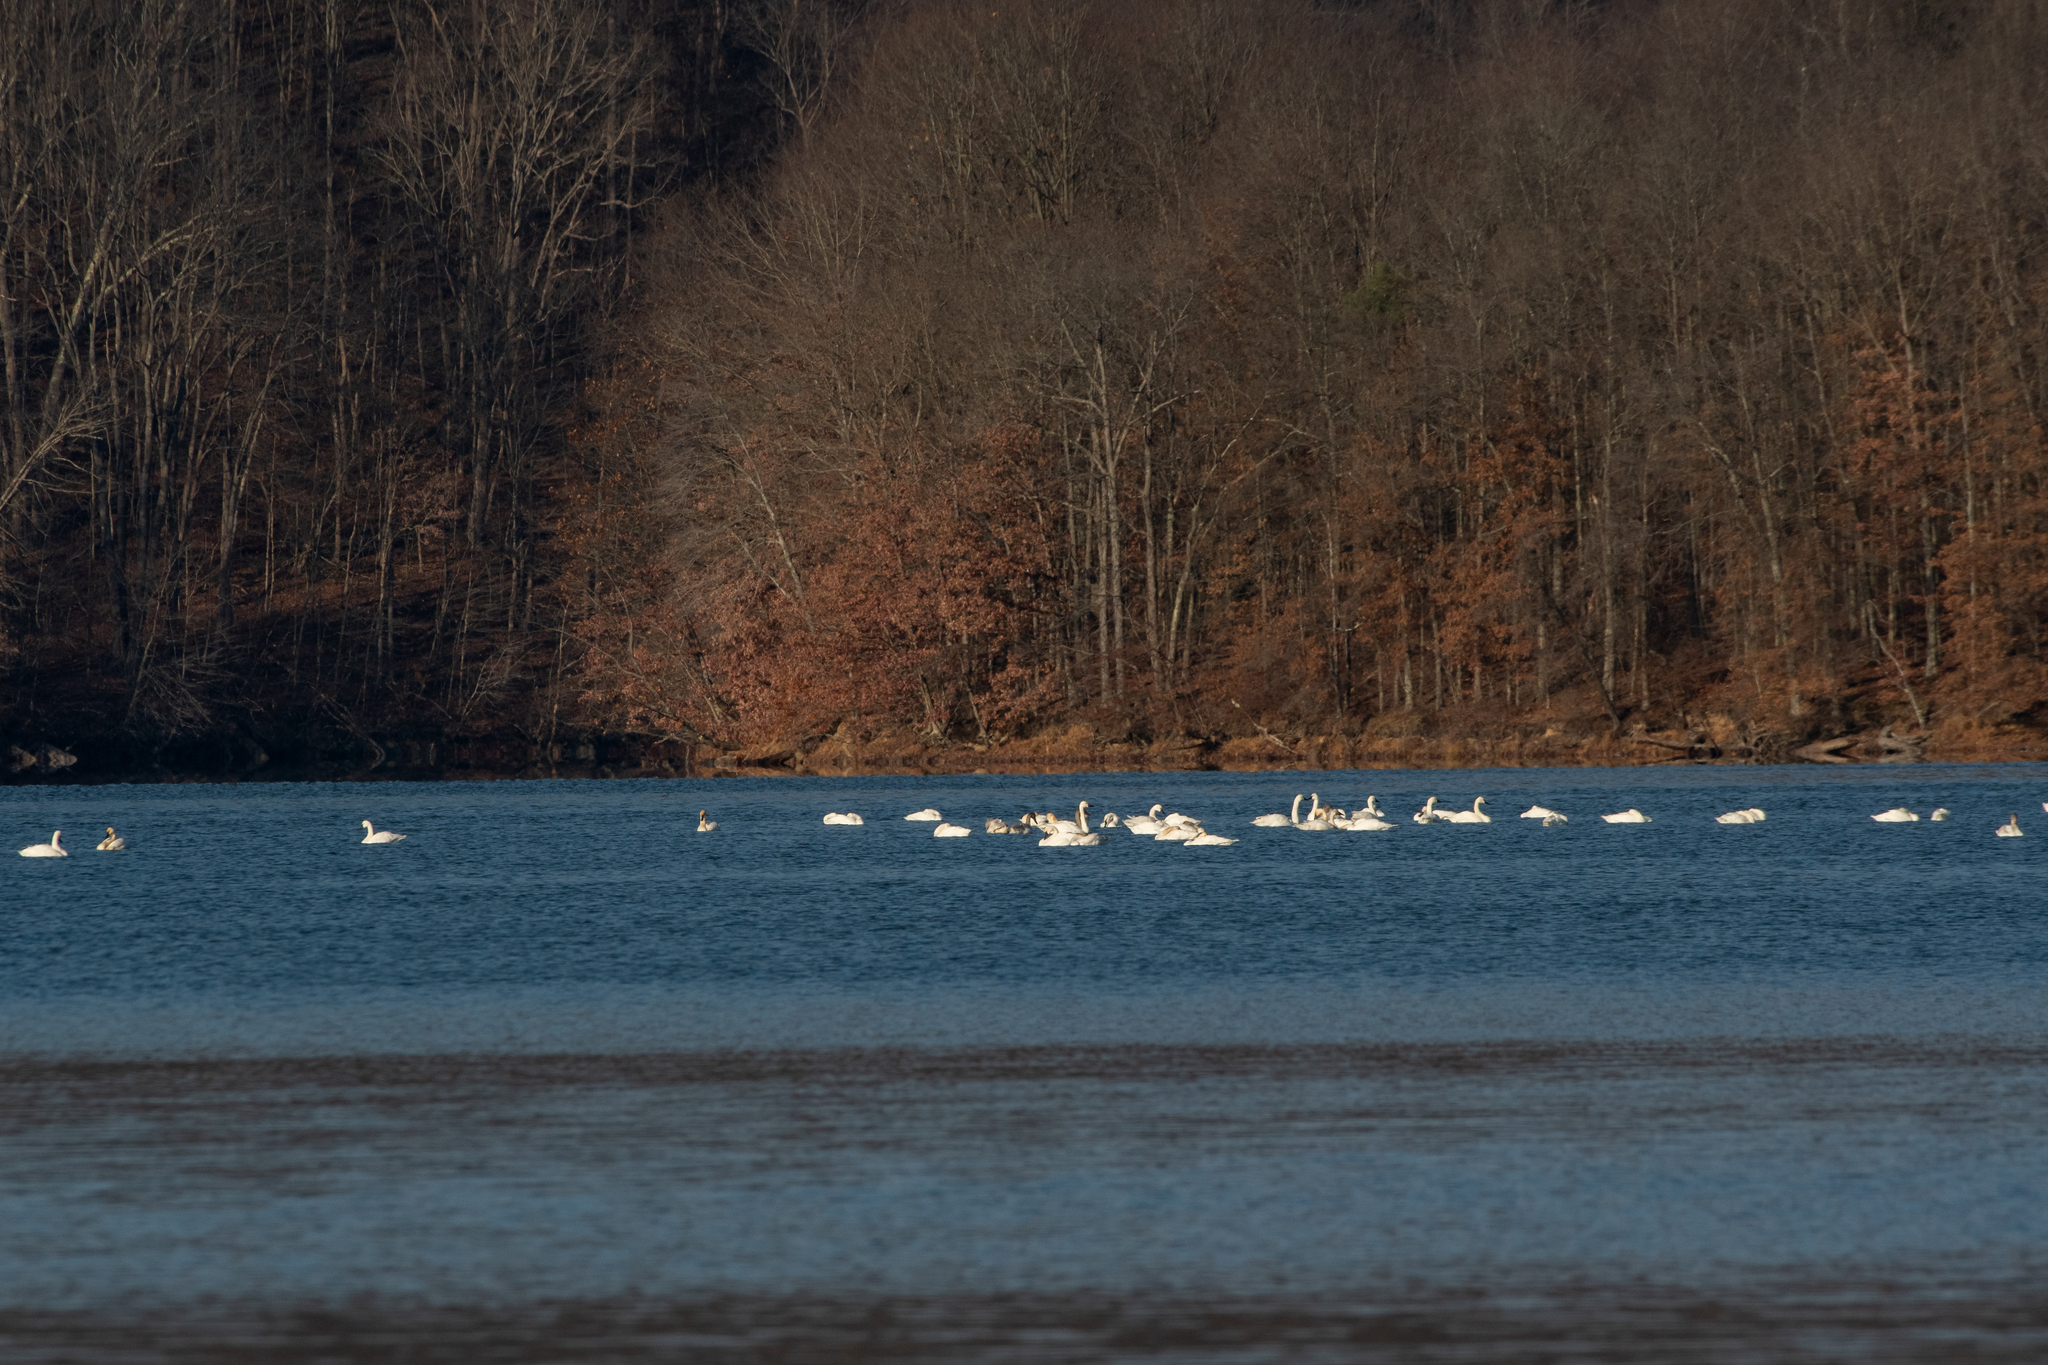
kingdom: Animalia
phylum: Chordata
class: Aves
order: Anseriformes
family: Anatidae
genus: Cygnus
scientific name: Cygnus columbianus
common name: Tundra swan
